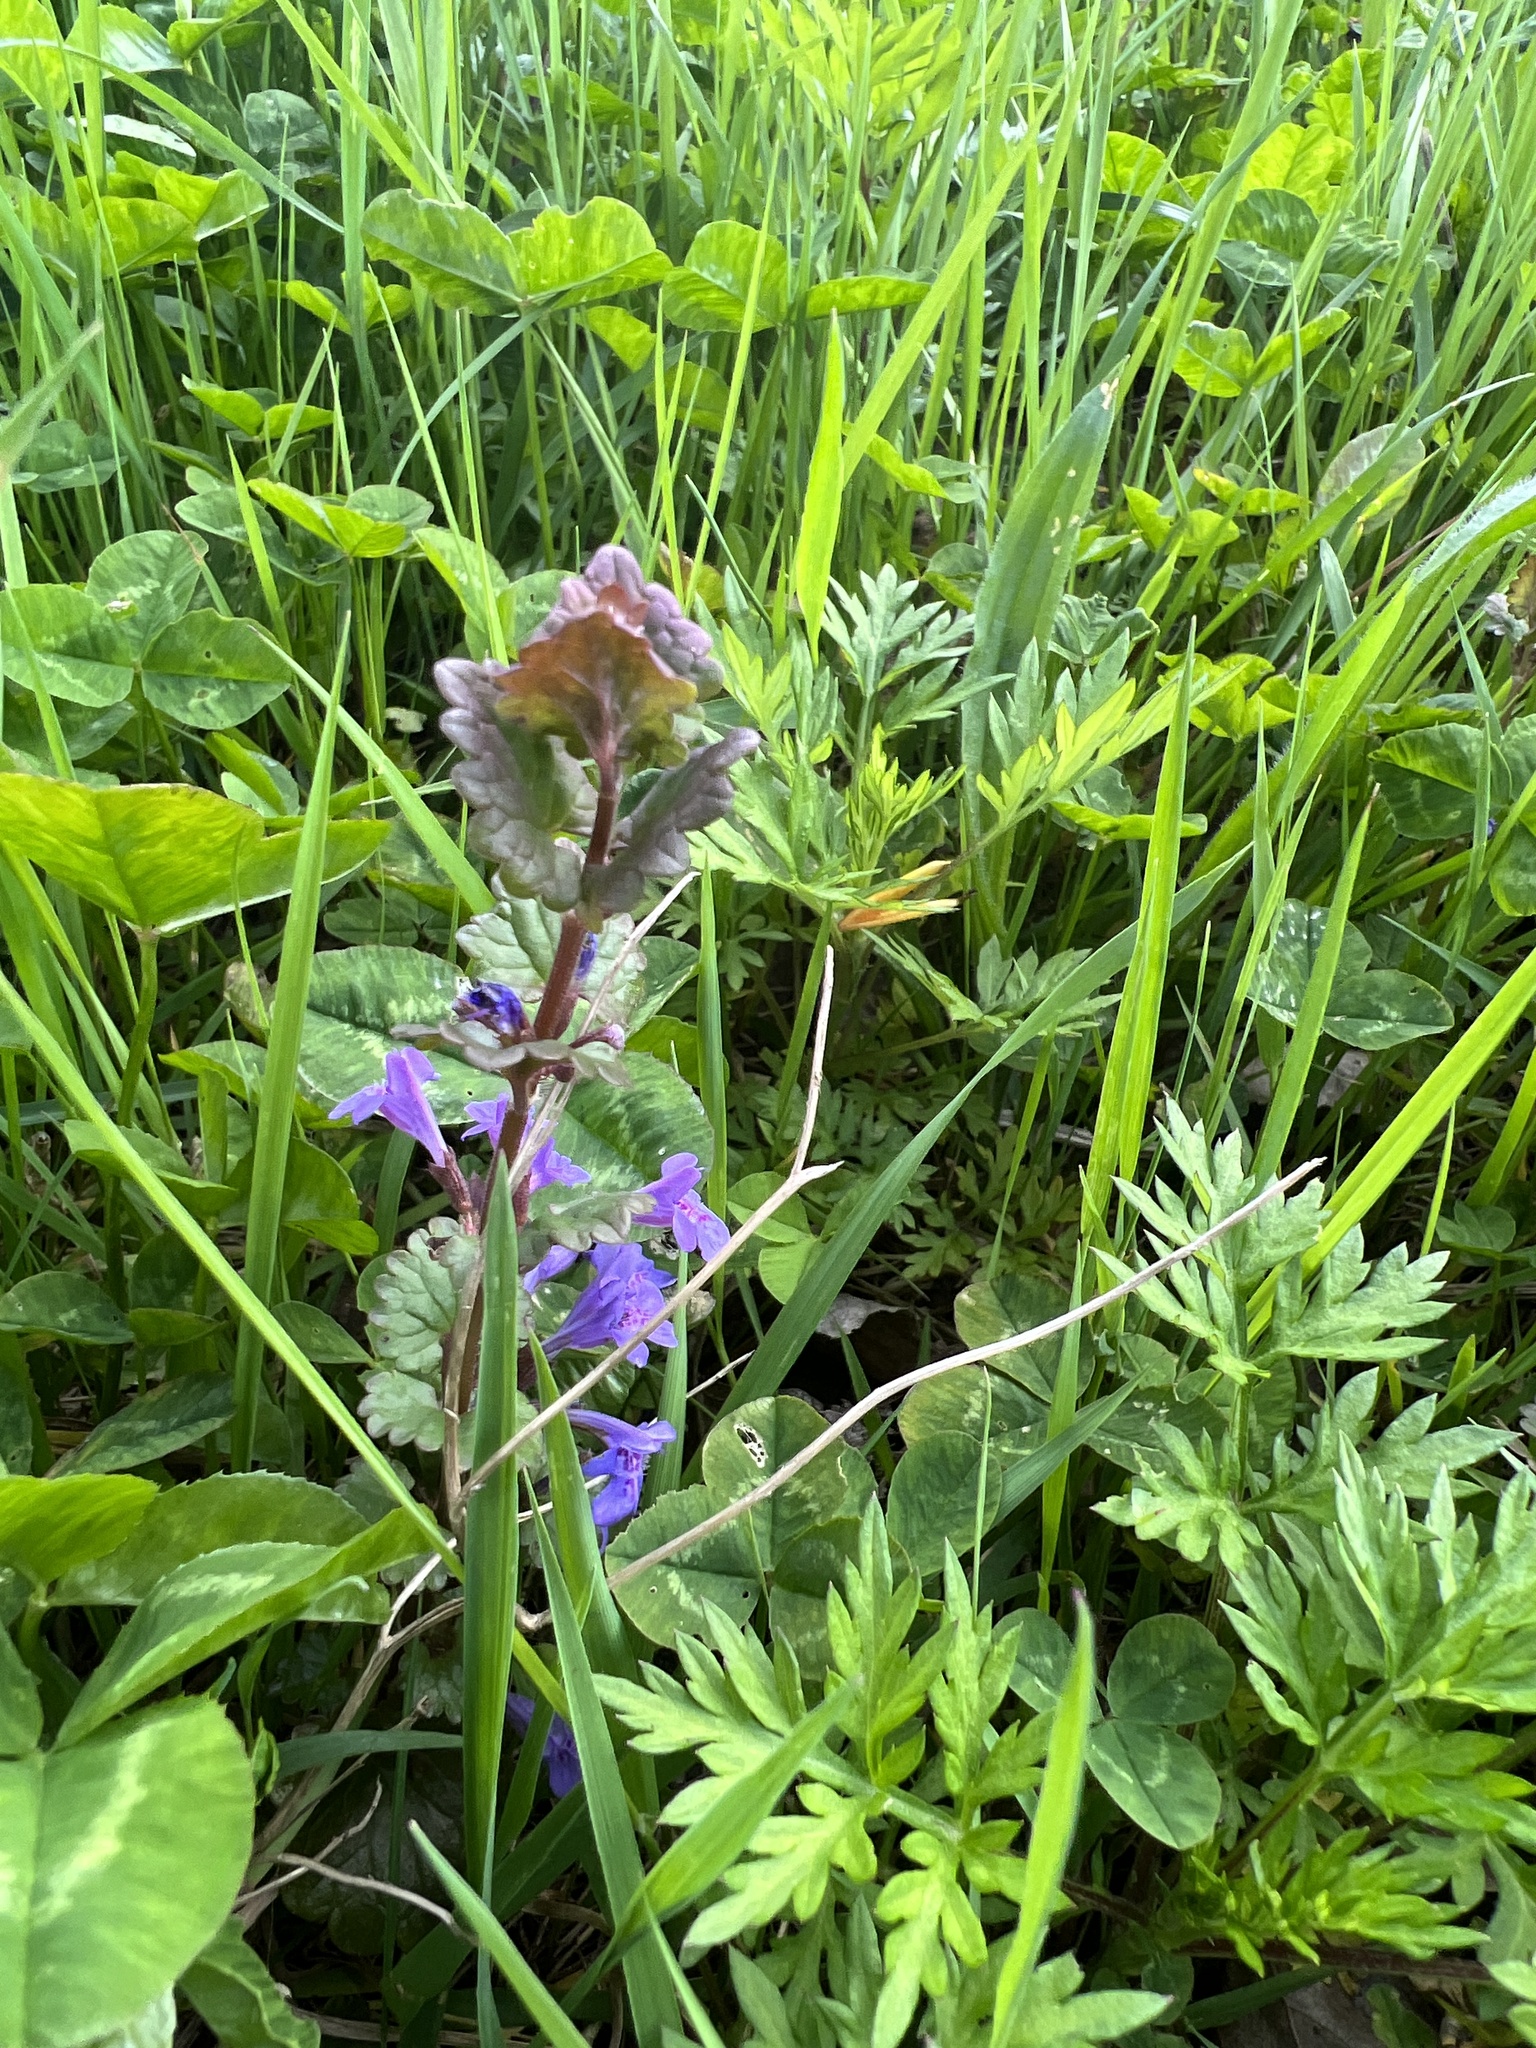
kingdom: Plantae
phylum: Tracheophyta
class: Magnoliopsida
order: Lamiales
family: Lamiaceae
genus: Glechoma
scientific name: Glechoma hederacea
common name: Ground ivy
